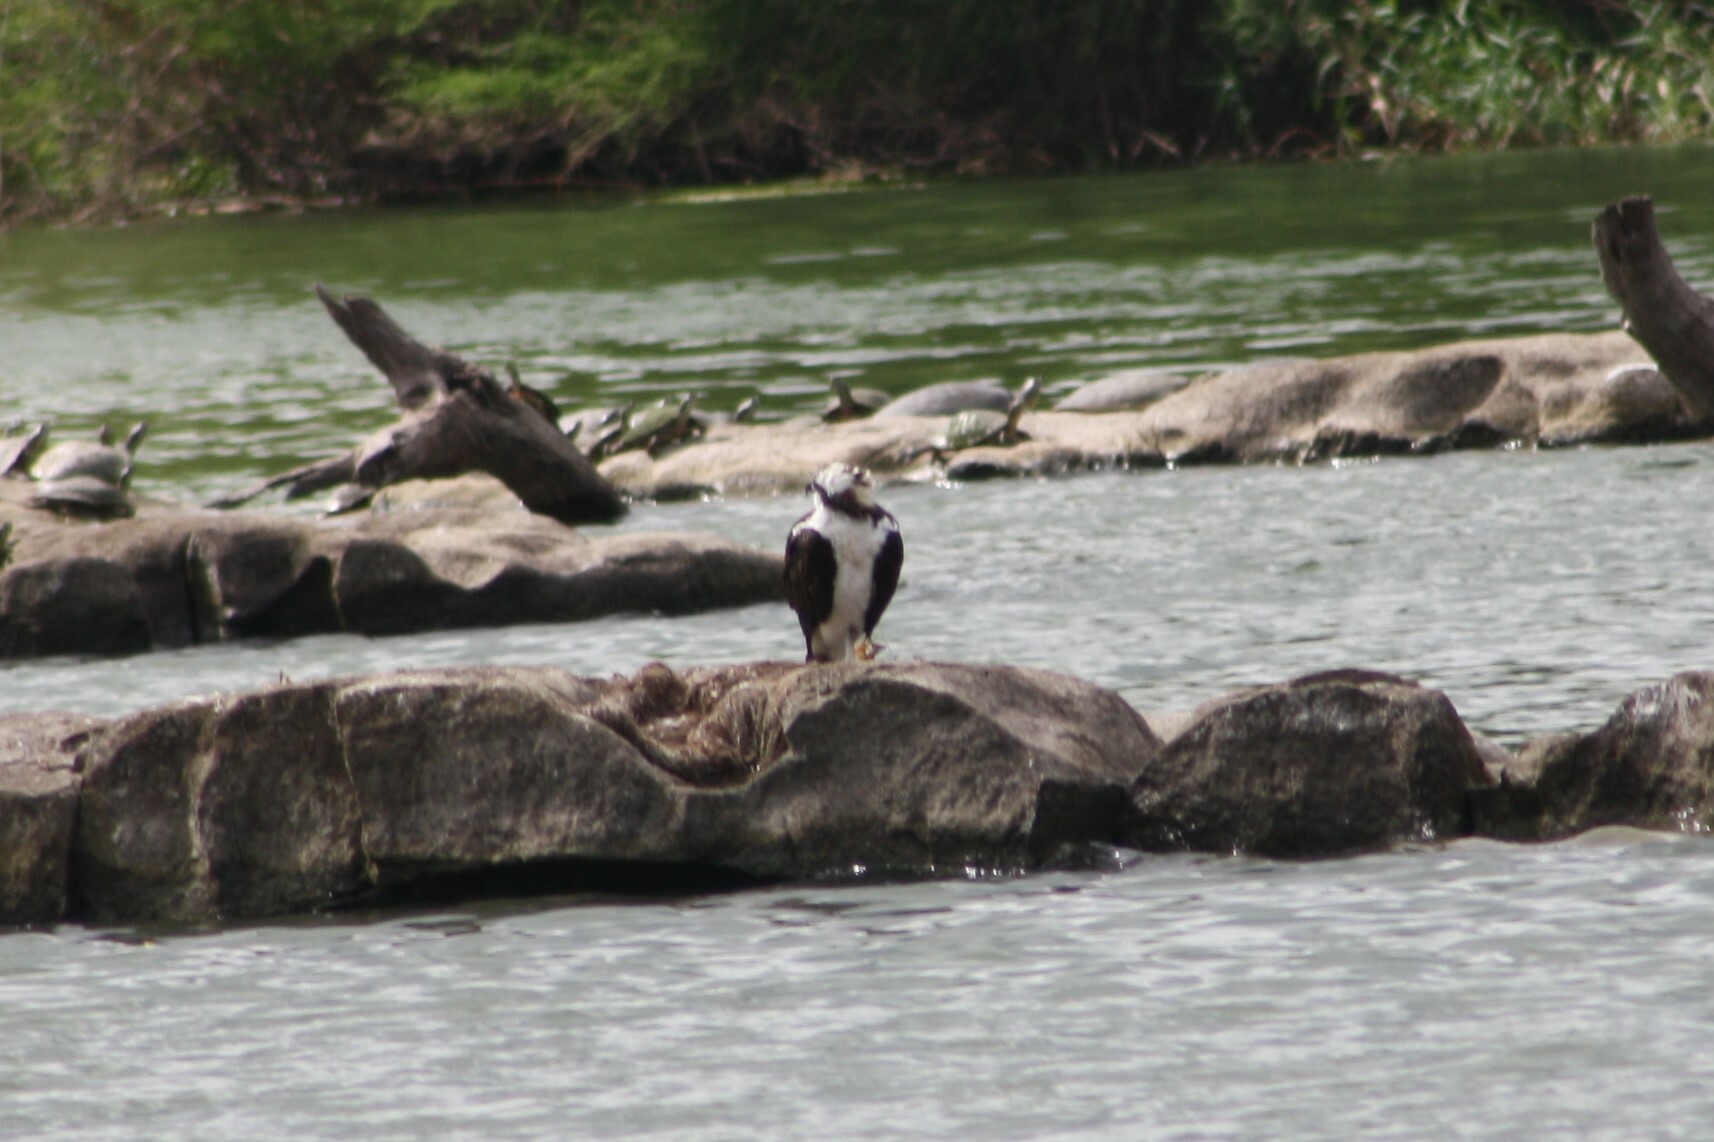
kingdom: Animalia
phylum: Chordata
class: Aves
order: Accipitriformes
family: Pandionidae
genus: Pandion
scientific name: Pandion haliaetus
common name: Osprey
